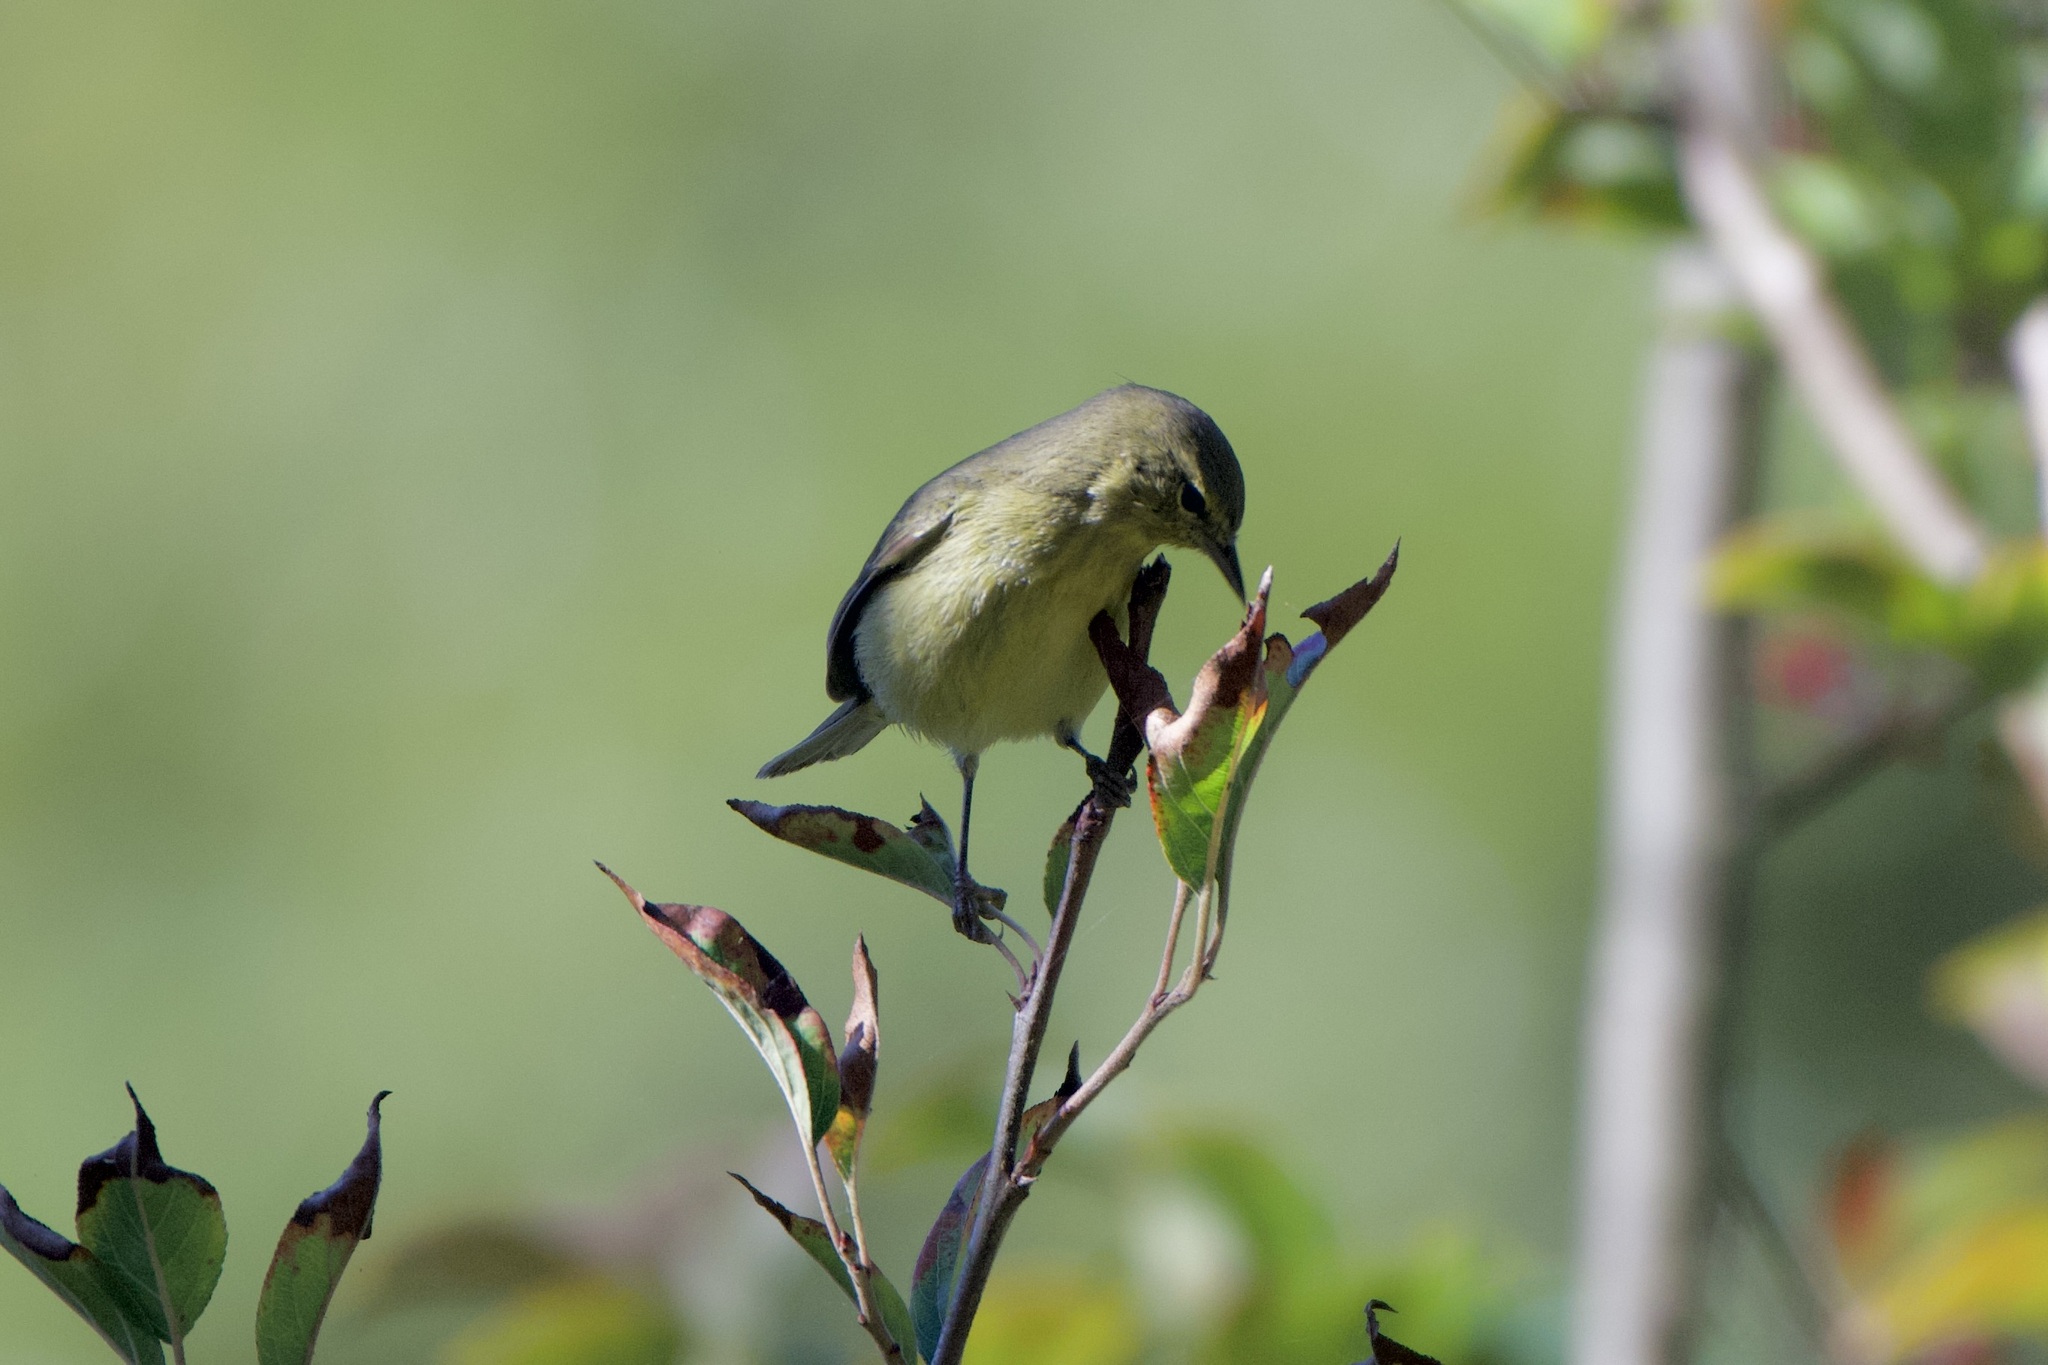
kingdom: Animalia
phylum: Chordata
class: Aves
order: Passeriformes
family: Parulidae
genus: Leiothlypis
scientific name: Leiothlypis celata
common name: Orange-crowned warbler
